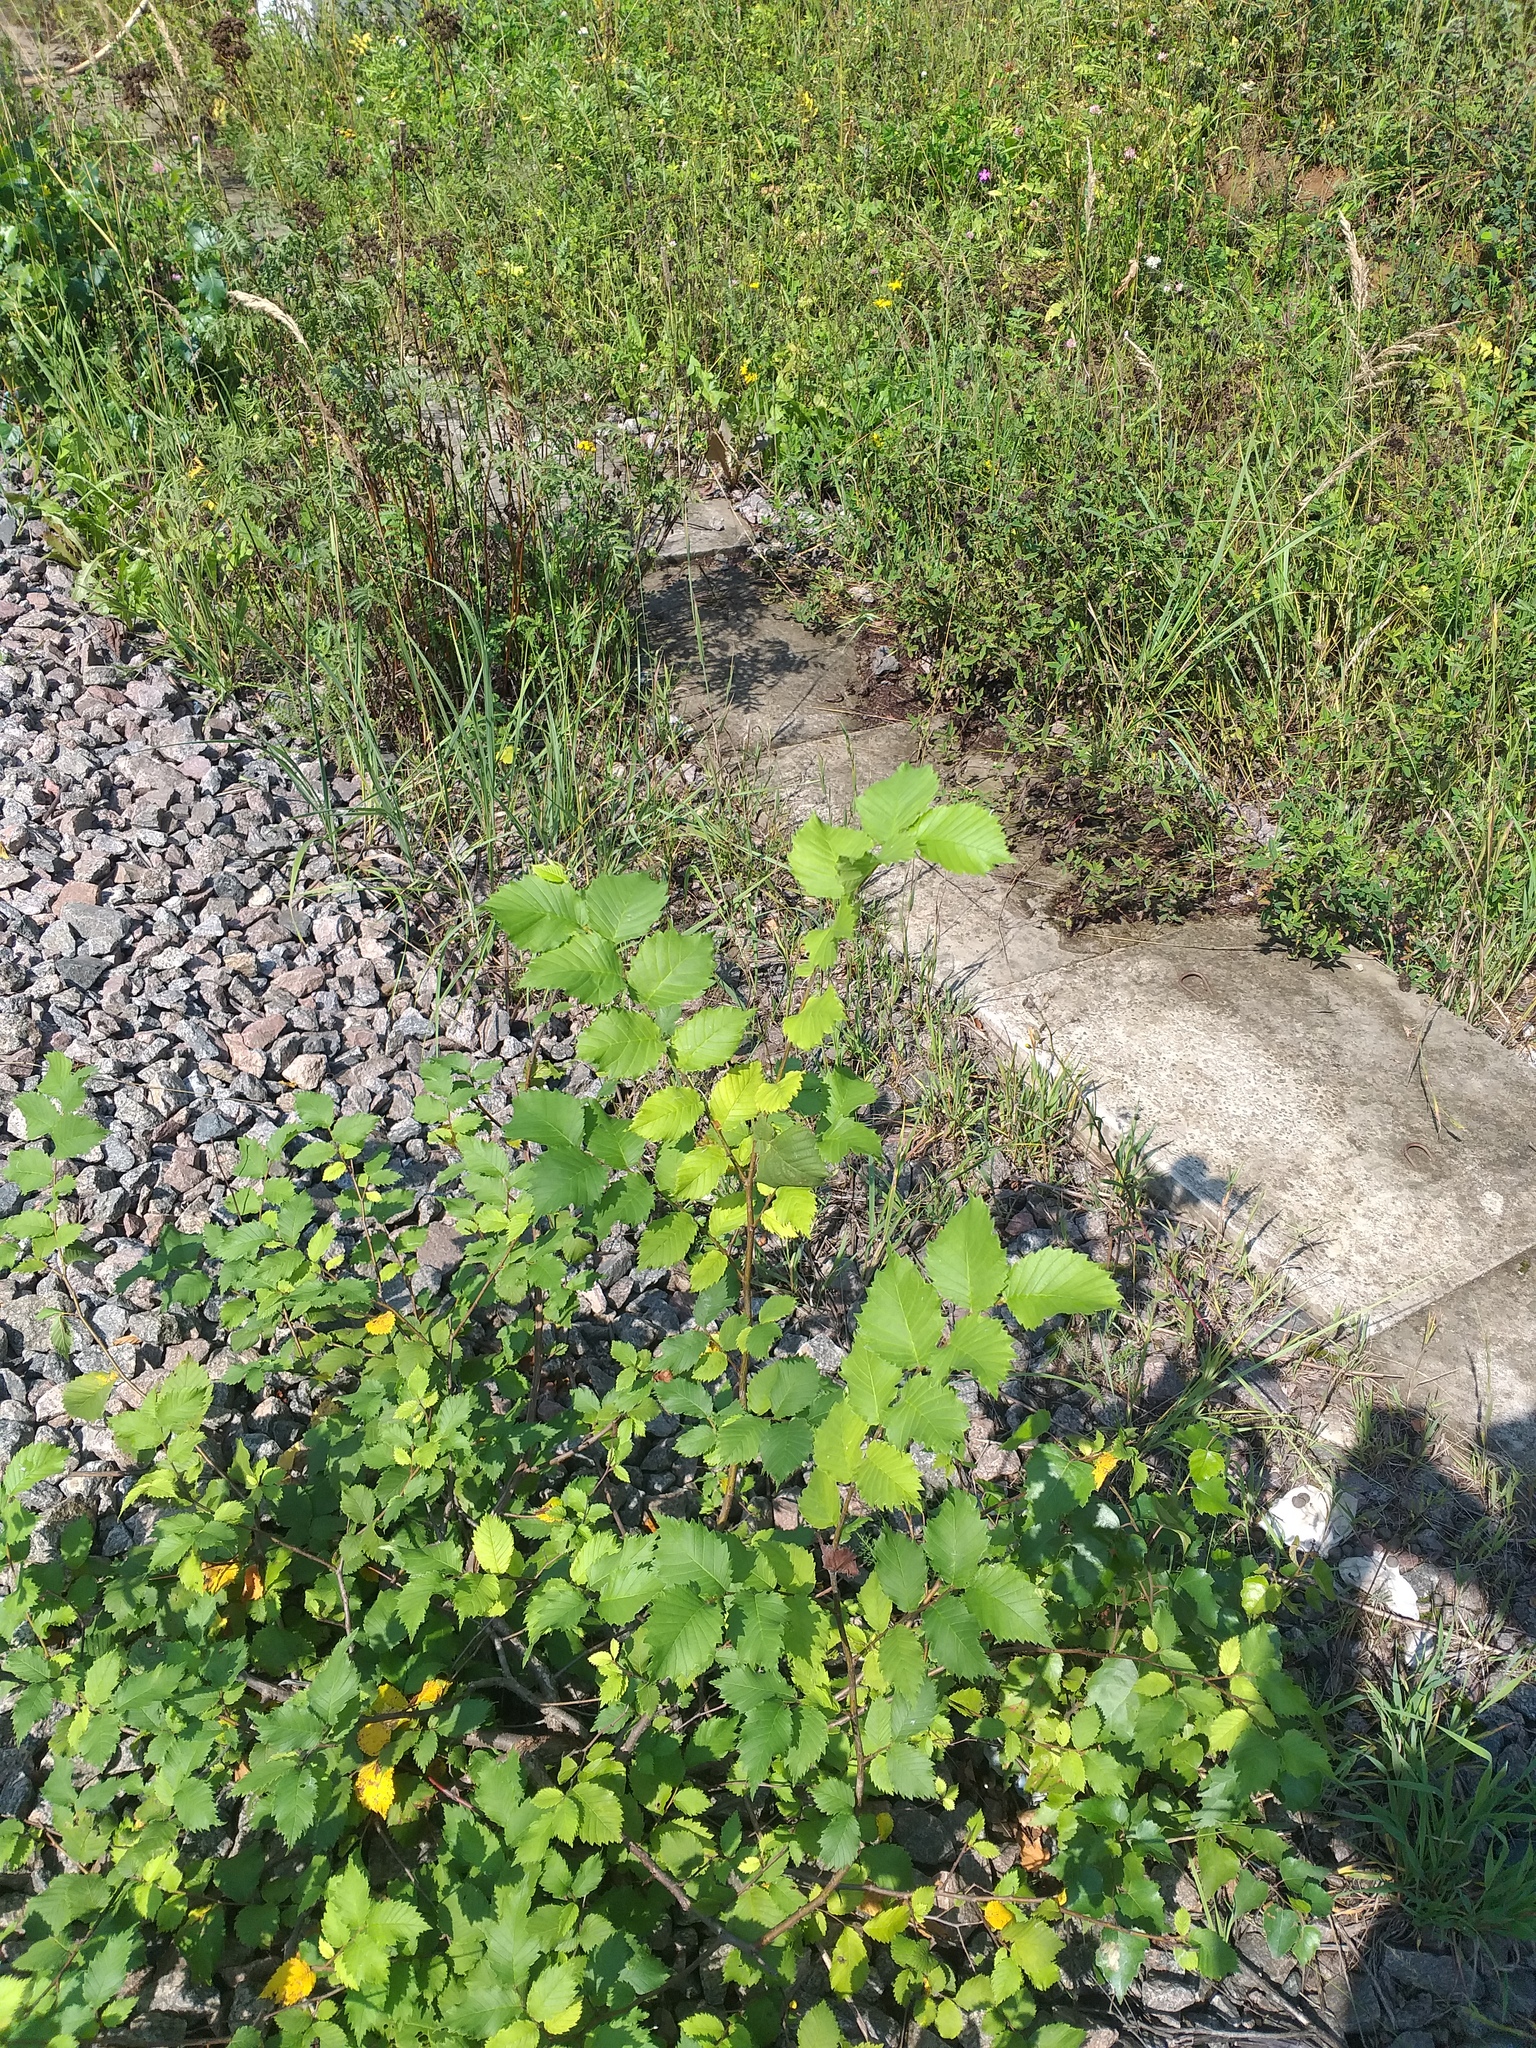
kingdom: Plantae
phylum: Tracheophyta
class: Magnoliopsida
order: Rosales
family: Ulmaceae
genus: Ulmus
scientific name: Ulmus laevis
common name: European white-elm
